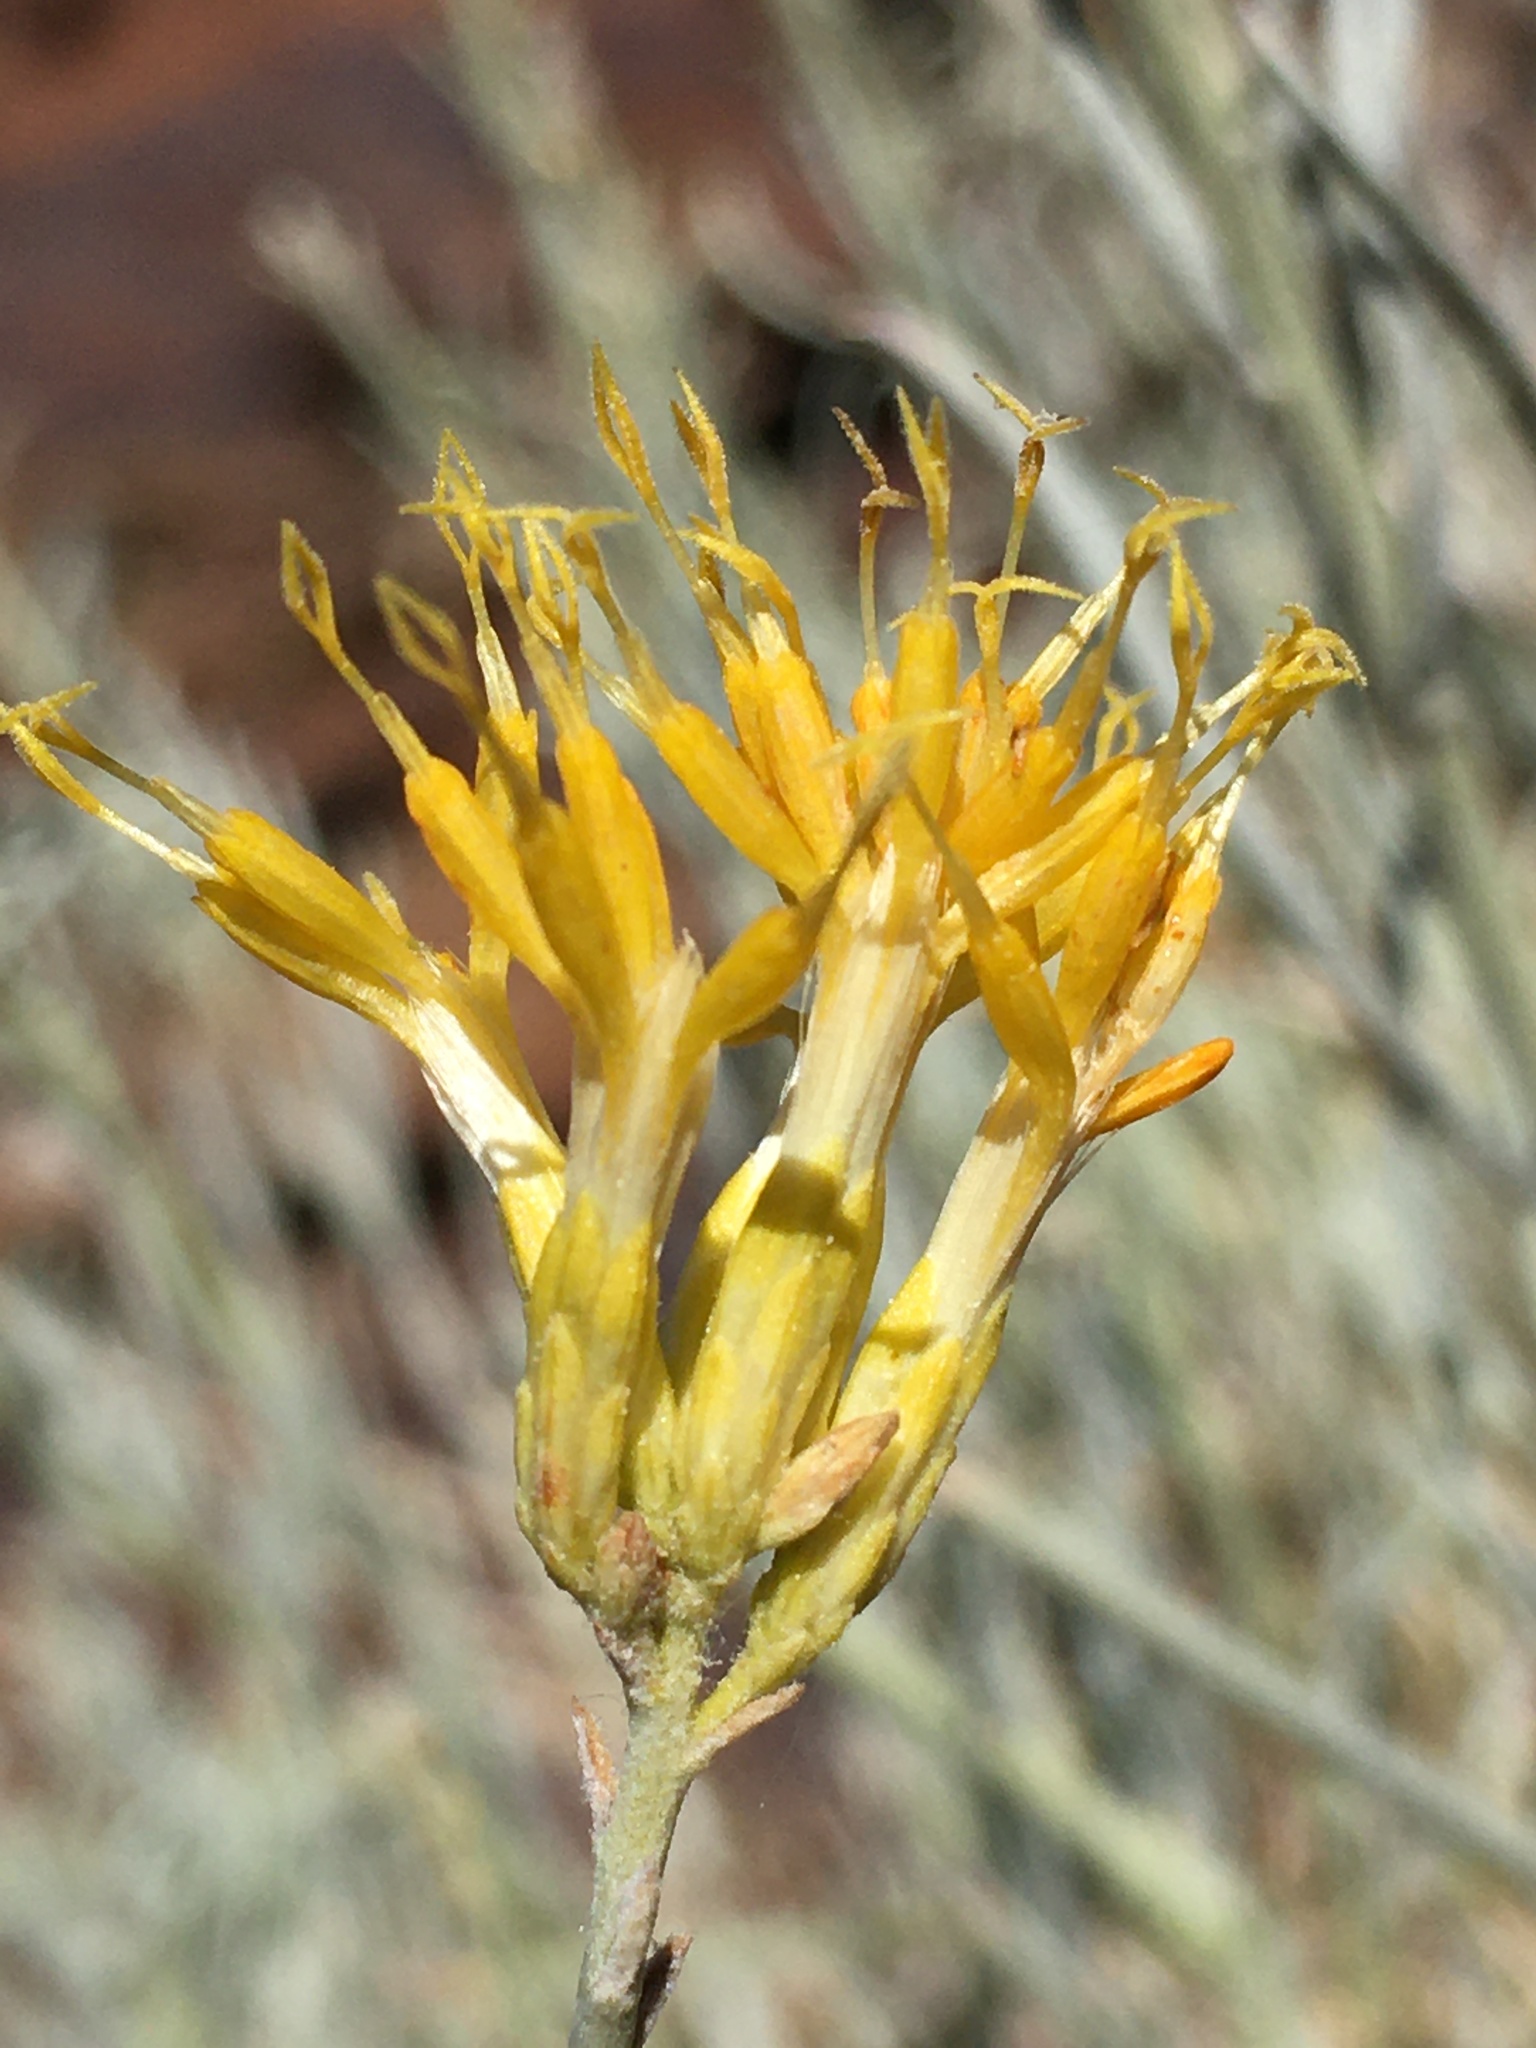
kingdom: Plantae
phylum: Tracheophyta
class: Magnoliopsida
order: Asterales
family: Asteraceae
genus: Ericameria
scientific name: Ericameria nauseosa
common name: Rubber rabbitbrush
